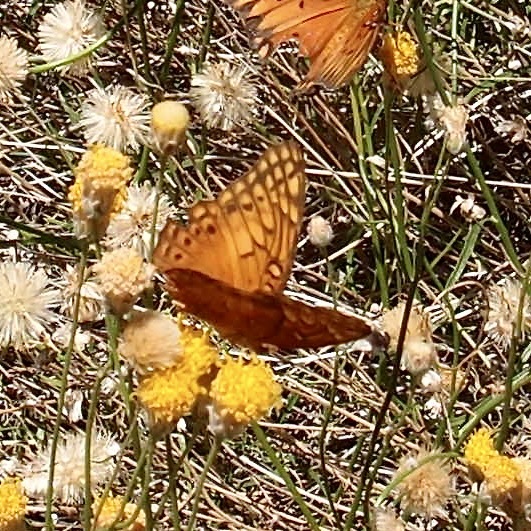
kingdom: Animalia
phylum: Arthropoda
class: Insecta
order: Lepidoptera
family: Nymphalidae
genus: Euptoieta
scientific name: Euptoieta hegesia
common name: Mexican fritillary
